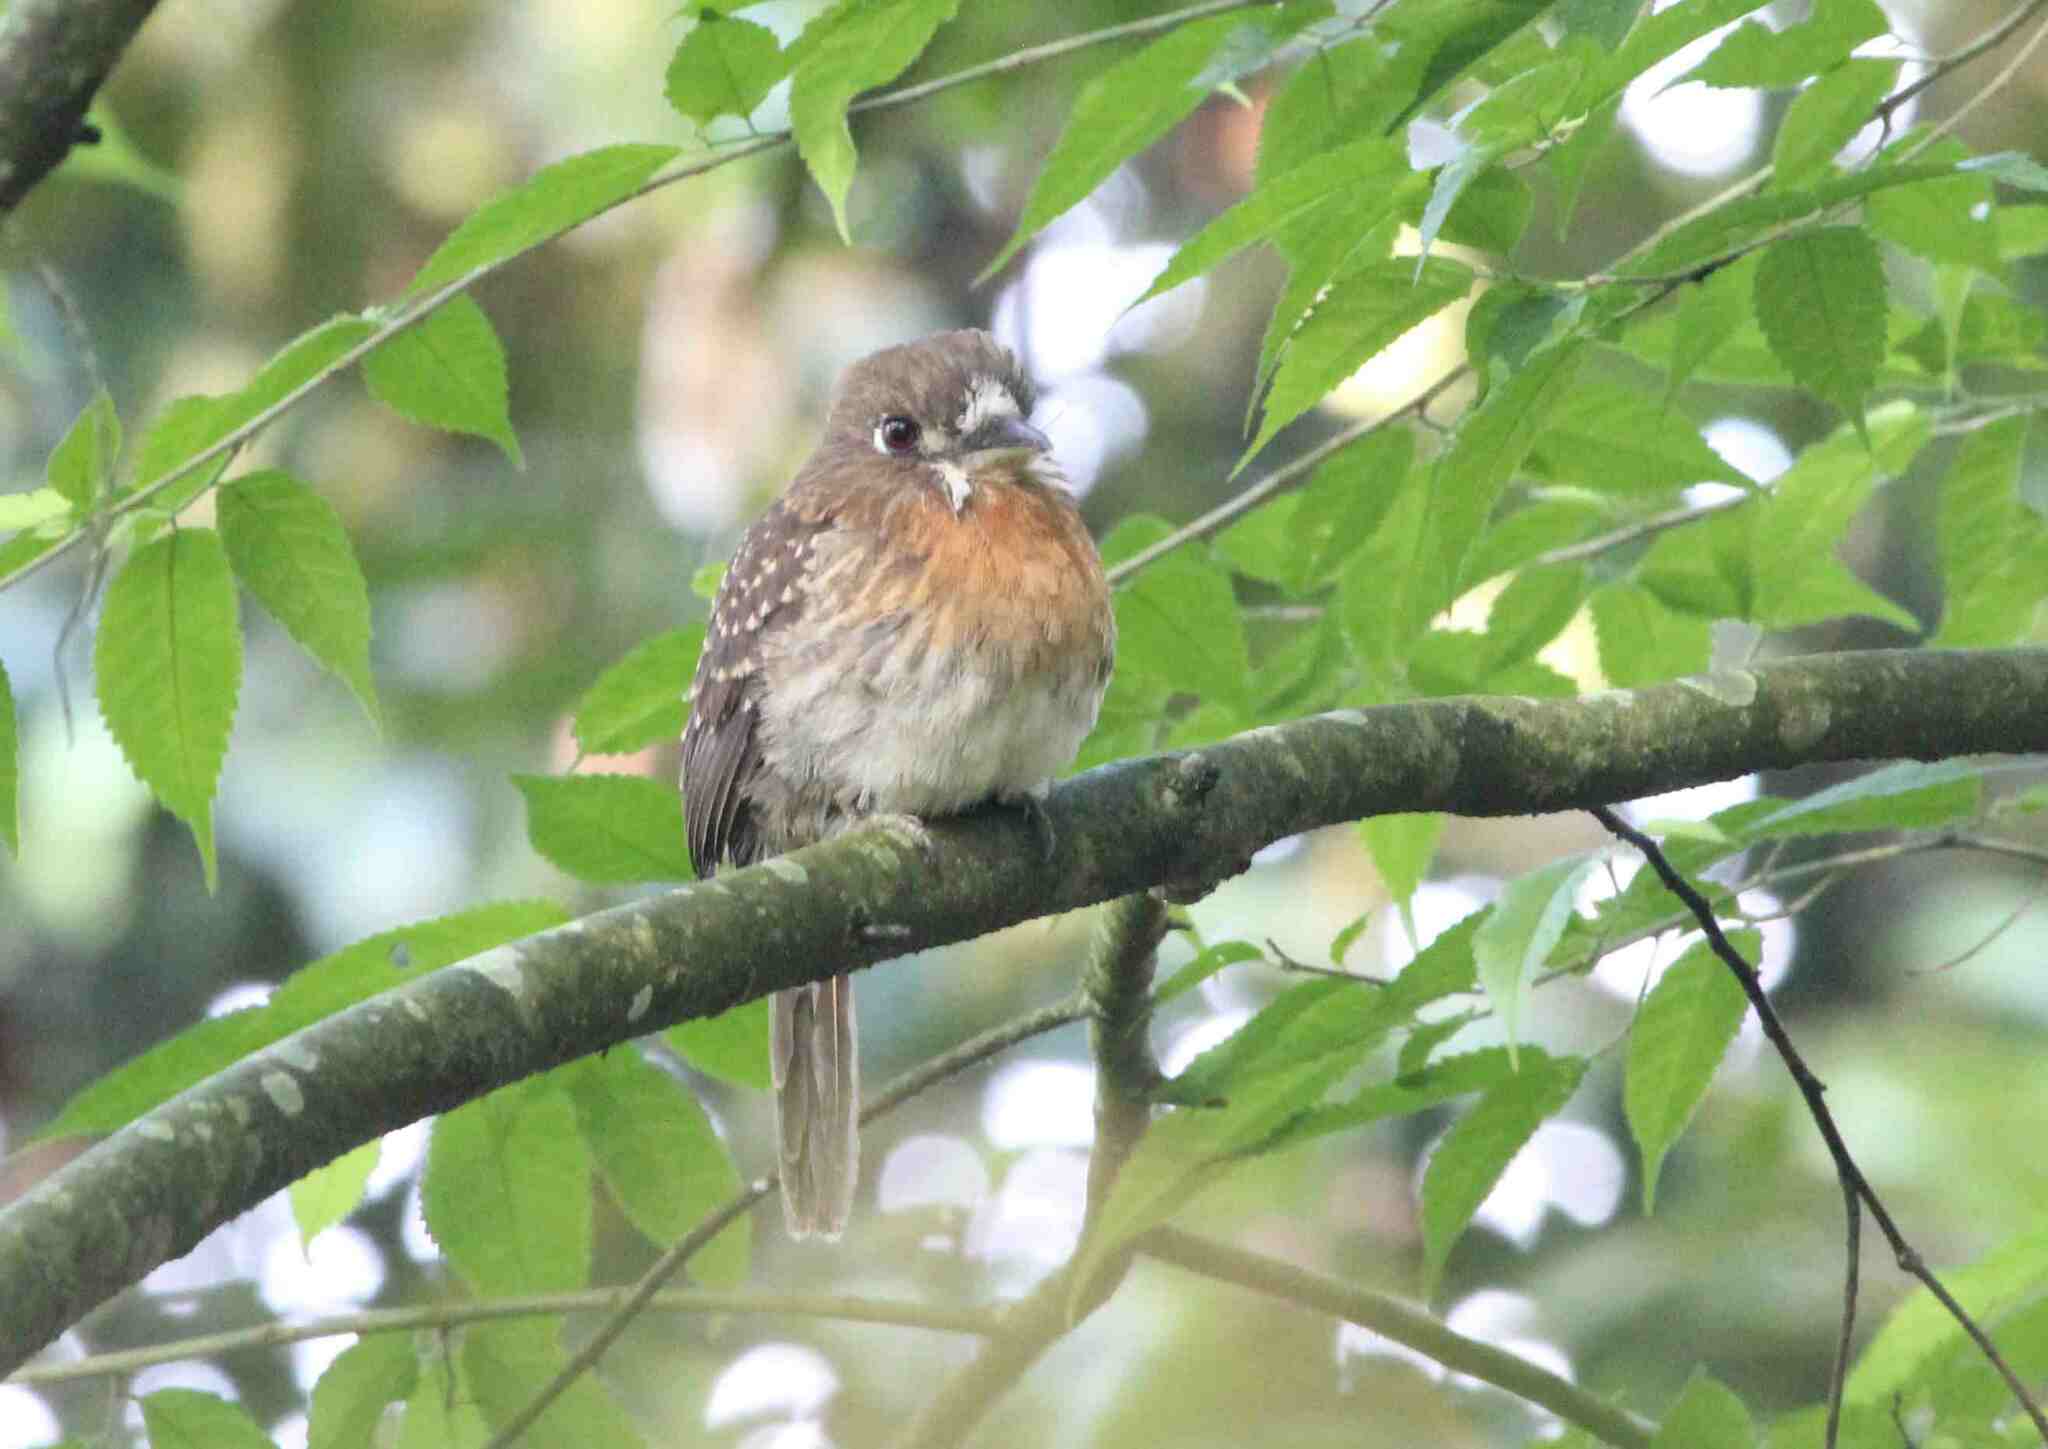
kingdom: Animalia
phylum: Chordata
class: Aves
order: Piciformes
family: Bucconidae
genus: Malacoptila
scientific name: Malacoptila mystacalis
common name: Moustached puffbird
